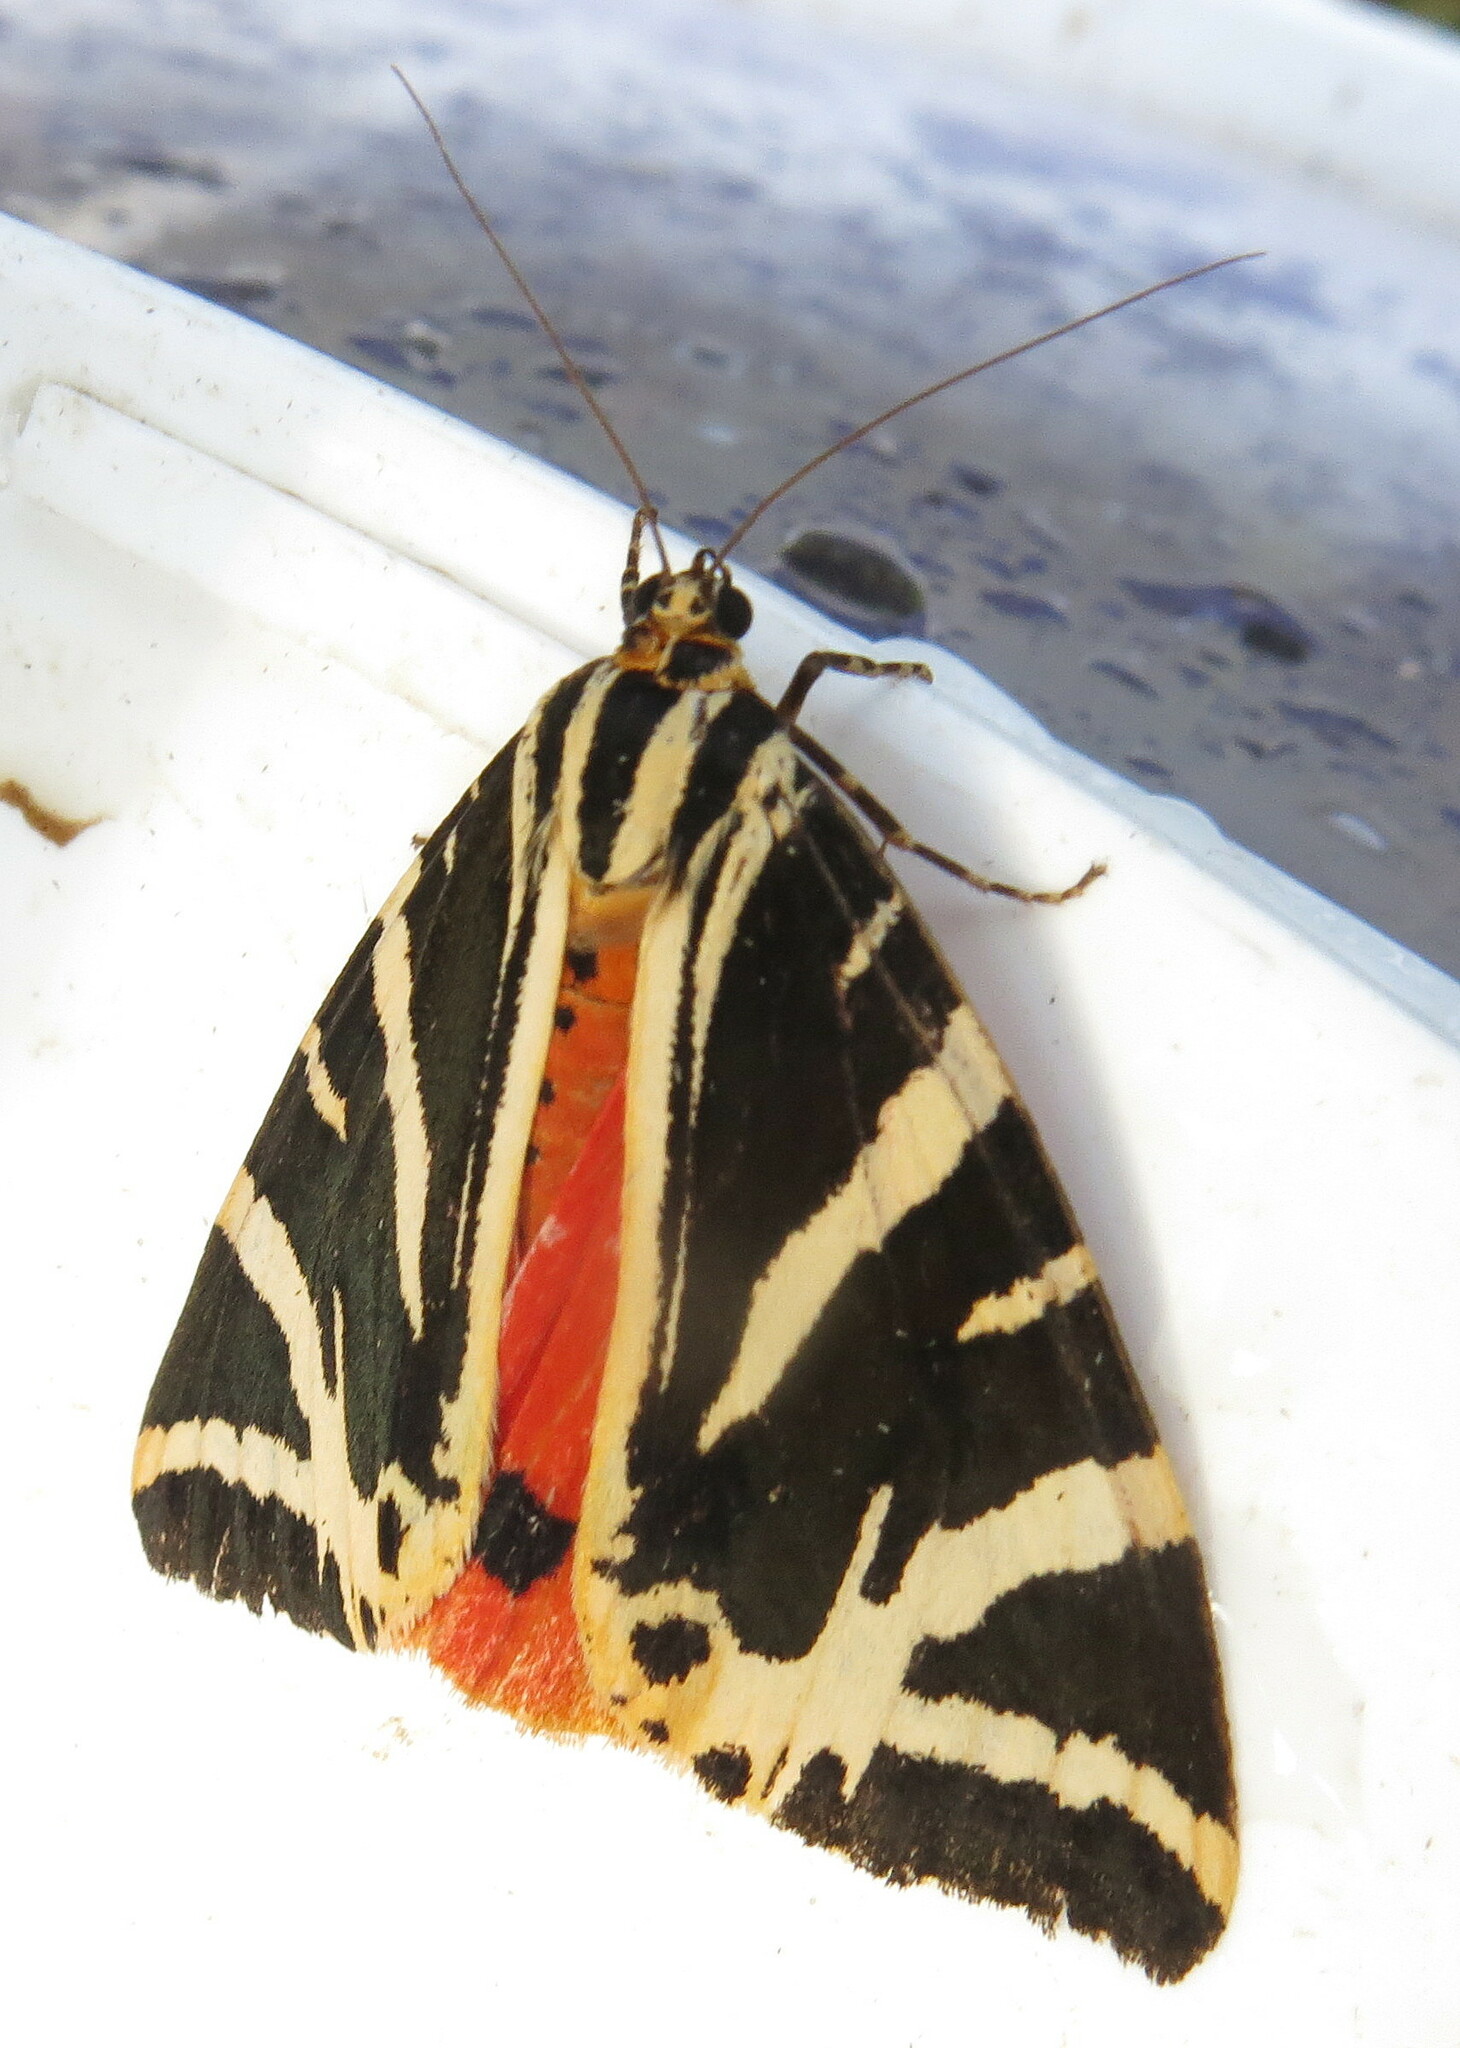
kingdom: Animalia
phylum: Arthropoda
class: Insecta
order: Lepidoptera
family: Erebidae
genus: Euplagia
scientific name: Euplagia quadripunctaria
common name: Jersey tiger
